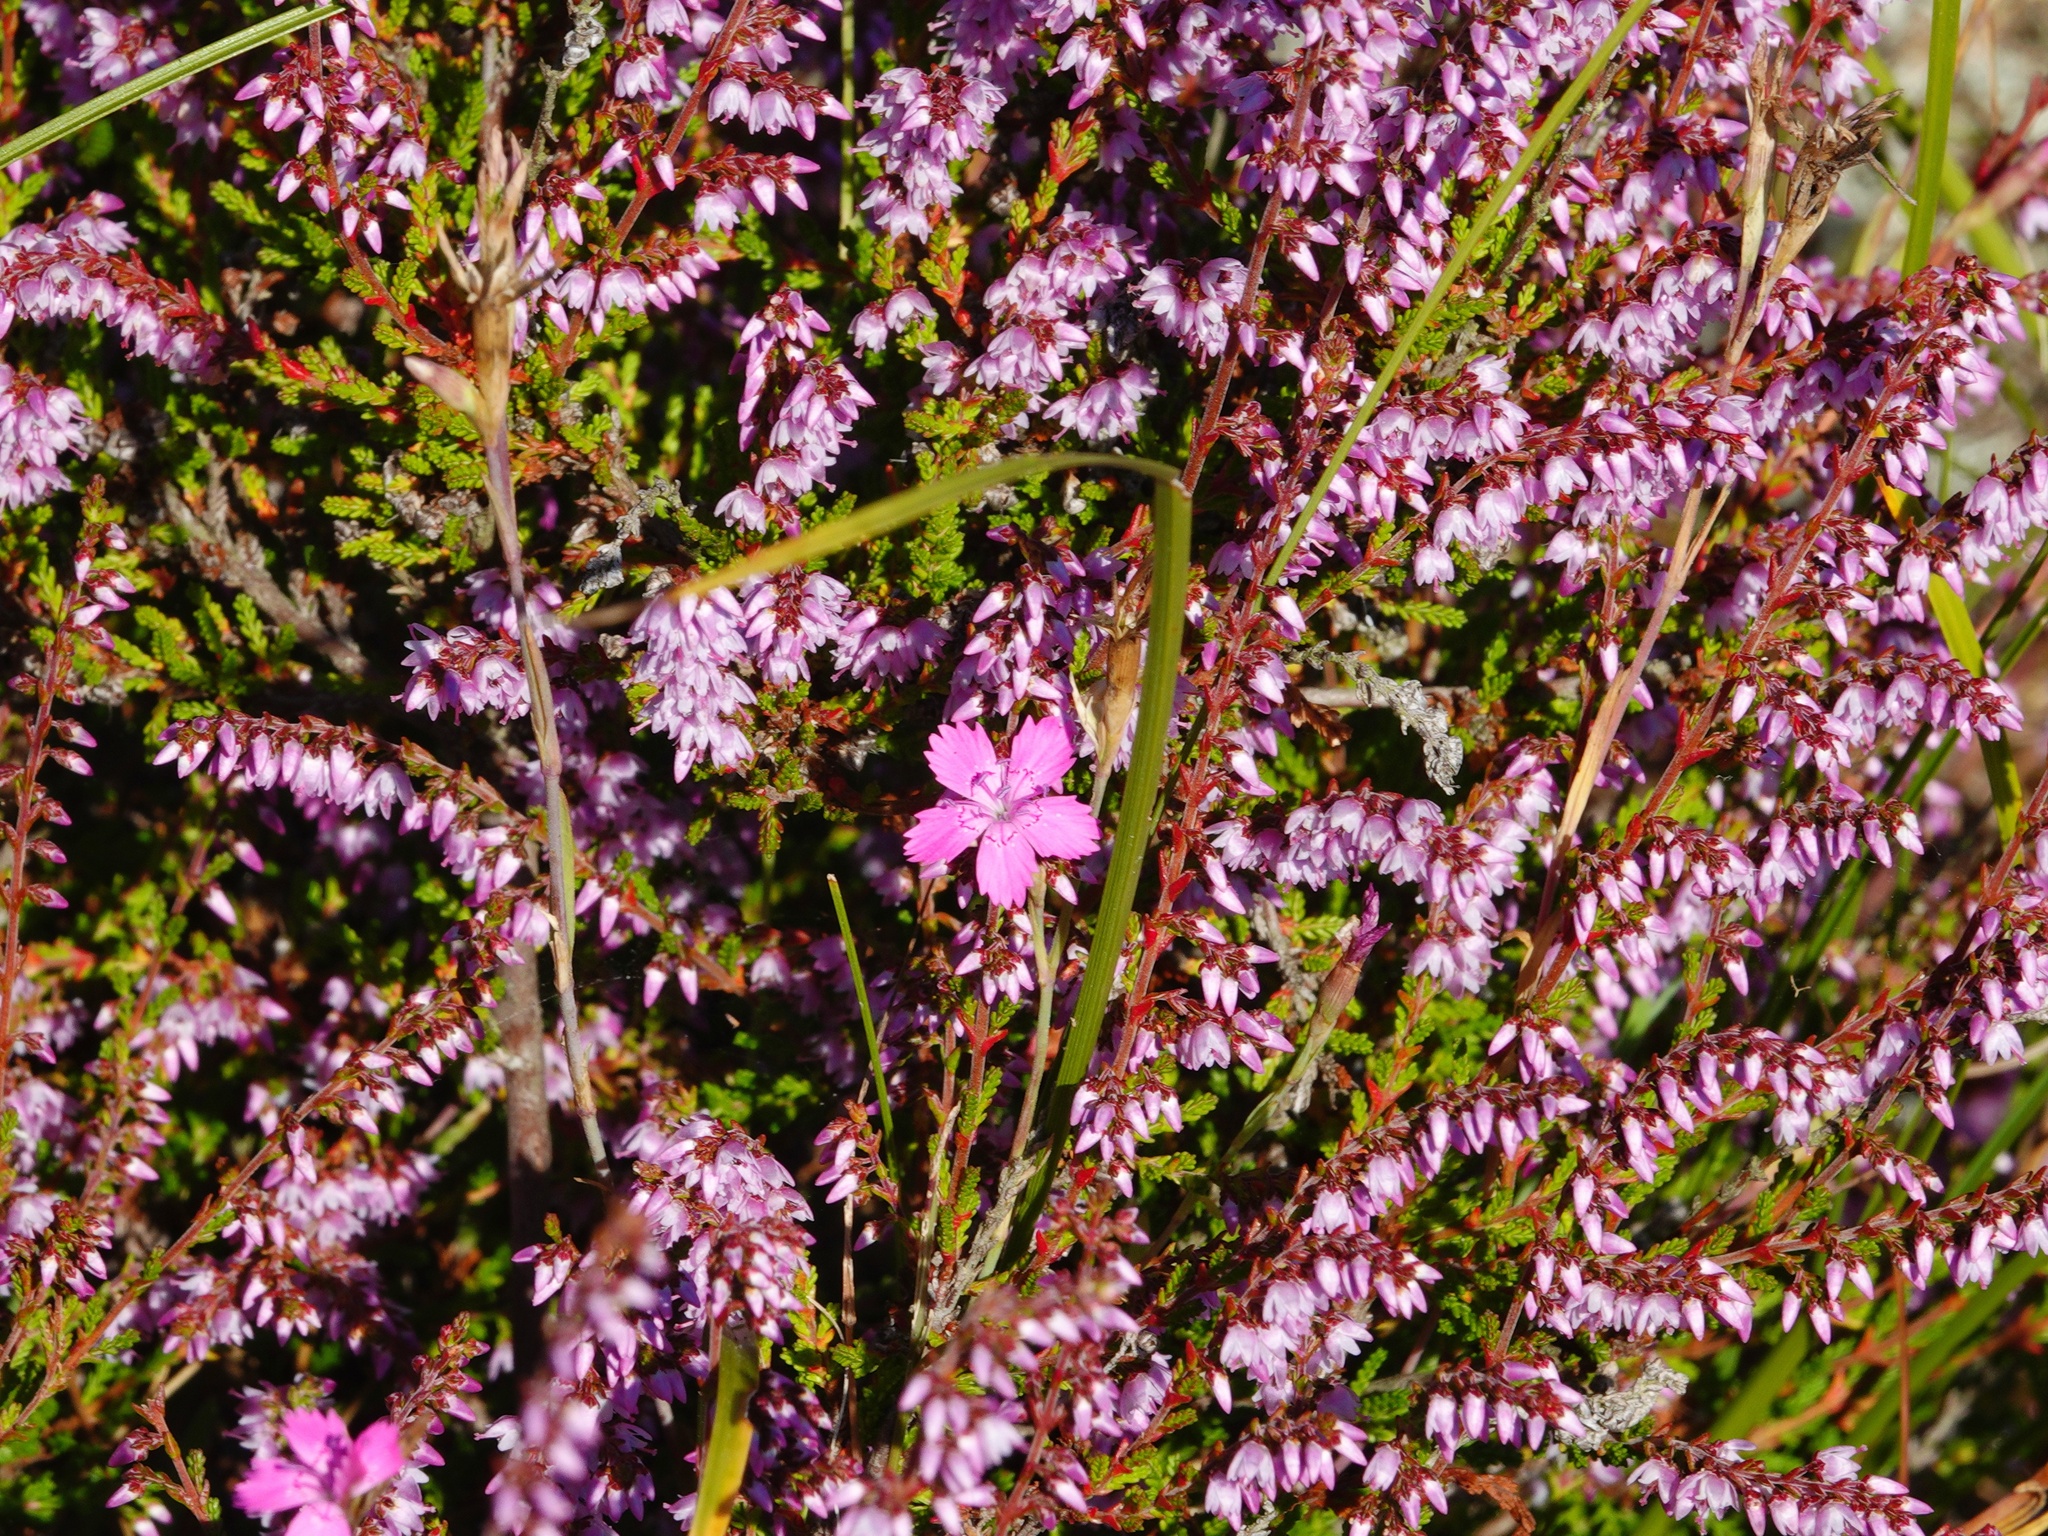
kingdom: Plantae
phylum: Tracheophyta
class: Magnoliopsida
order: Caryophyllales
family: Caryophyllaceae
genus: Dianthus
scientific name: Dianthus deltoides
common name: Maiden pink
